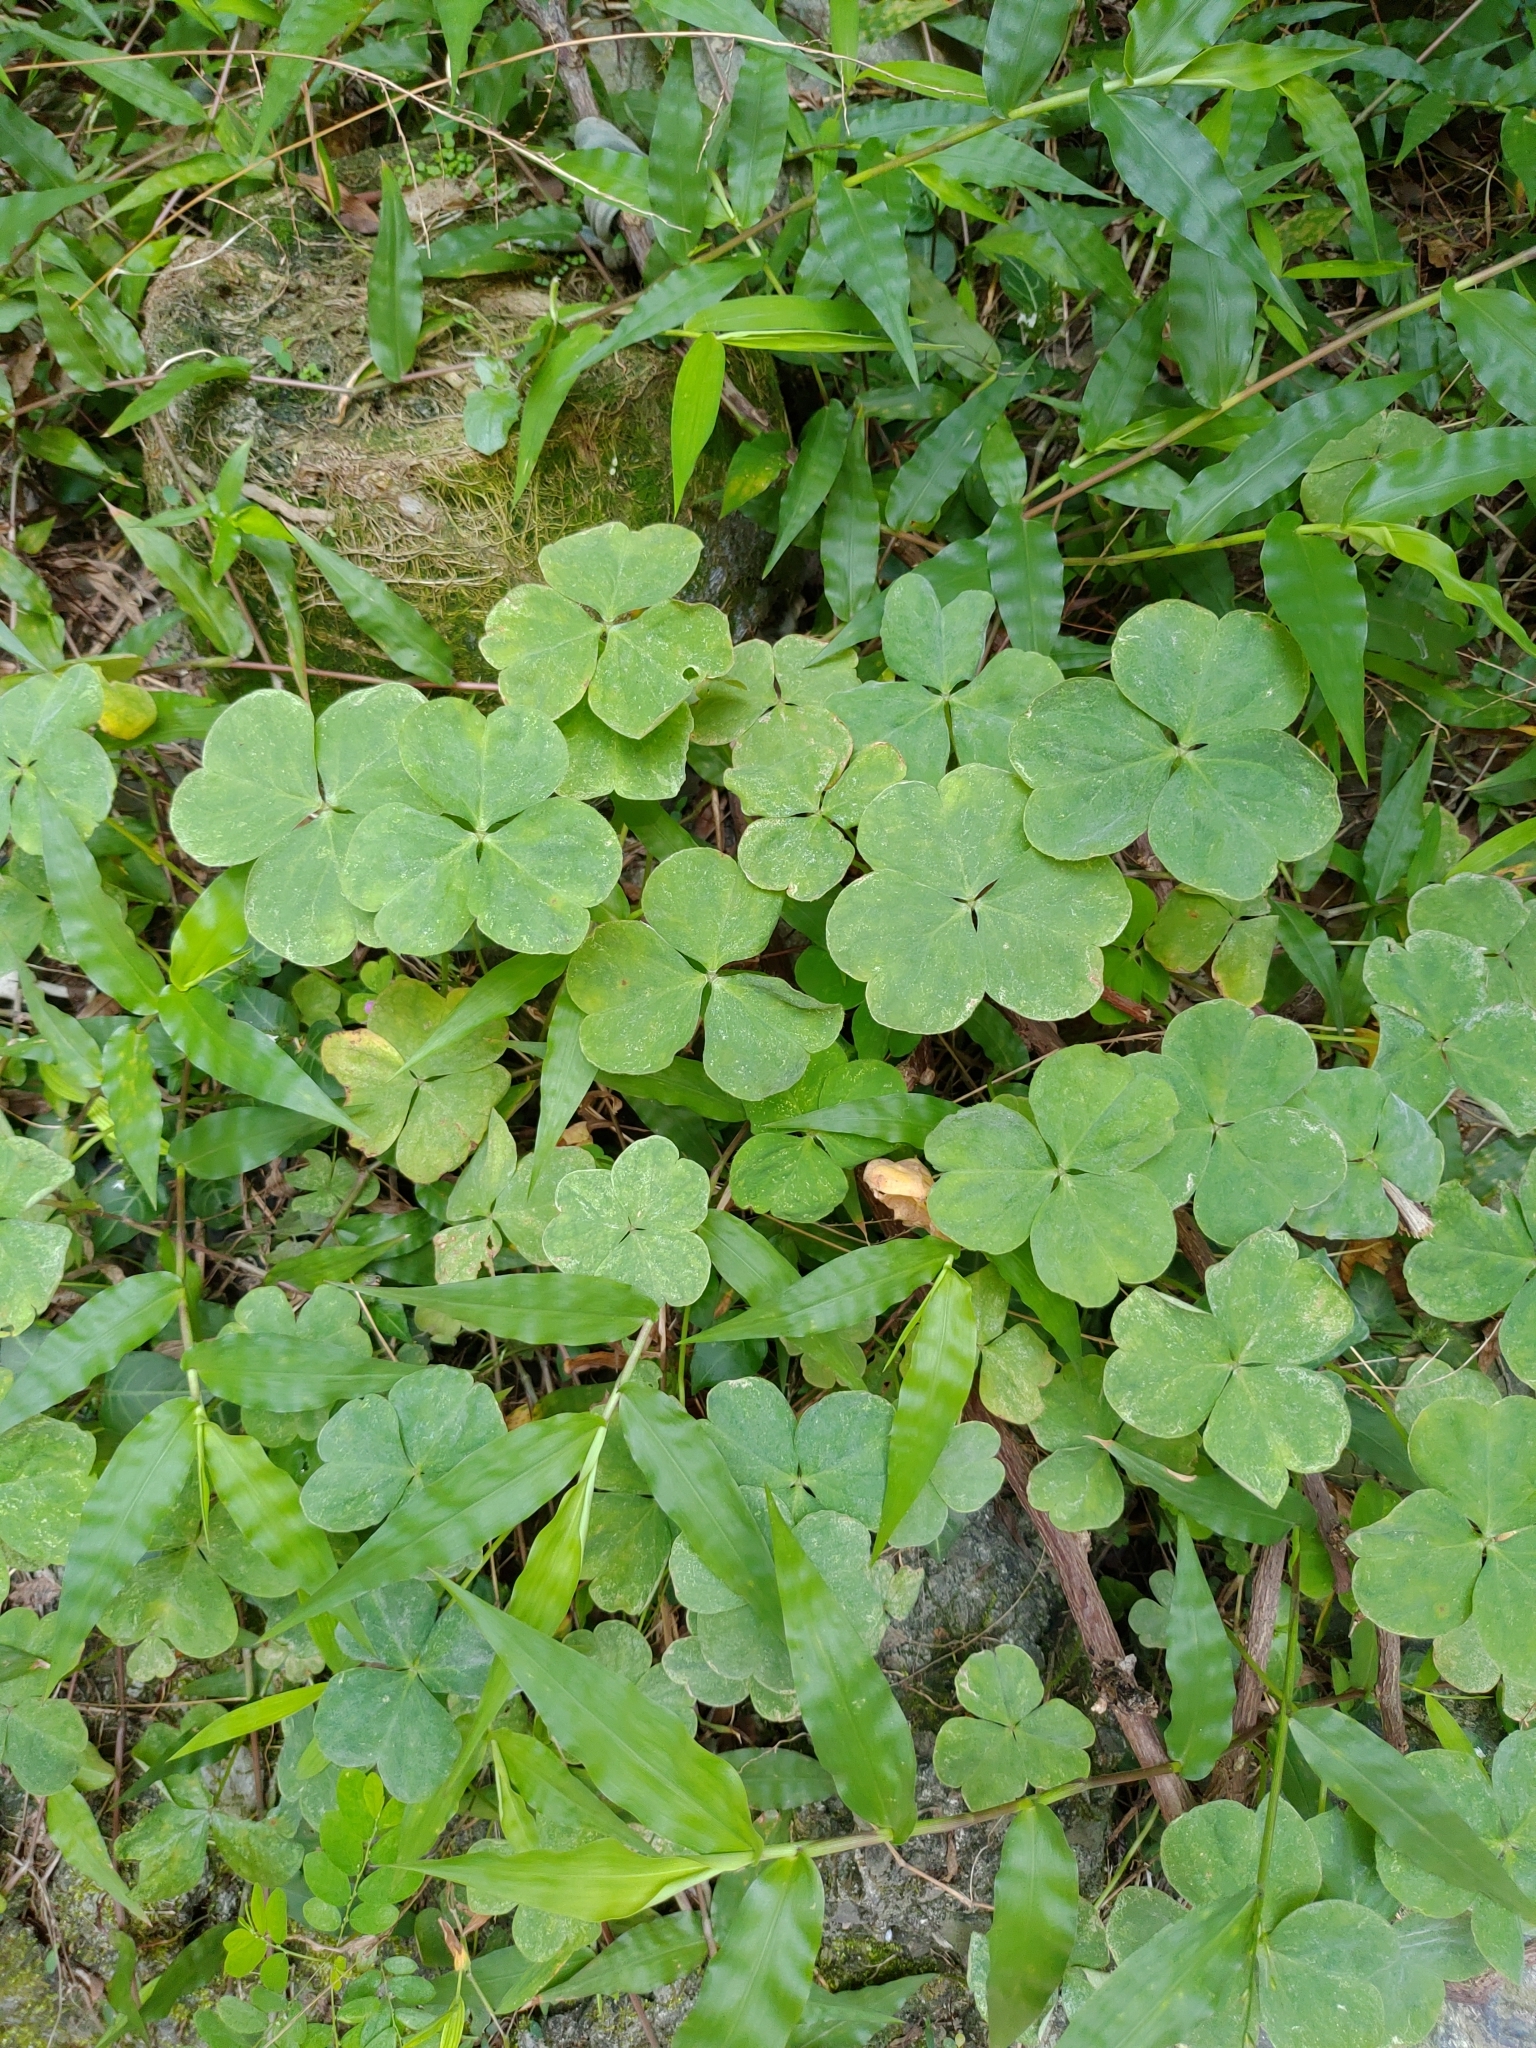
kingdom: Plantae
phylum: Tracheophyta
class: Magnoliopsida
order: Oxalidales
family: Oxalidaceae
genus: Oxalis
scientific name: Oxalis debilis
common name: Large-flowered pink-sorrel
